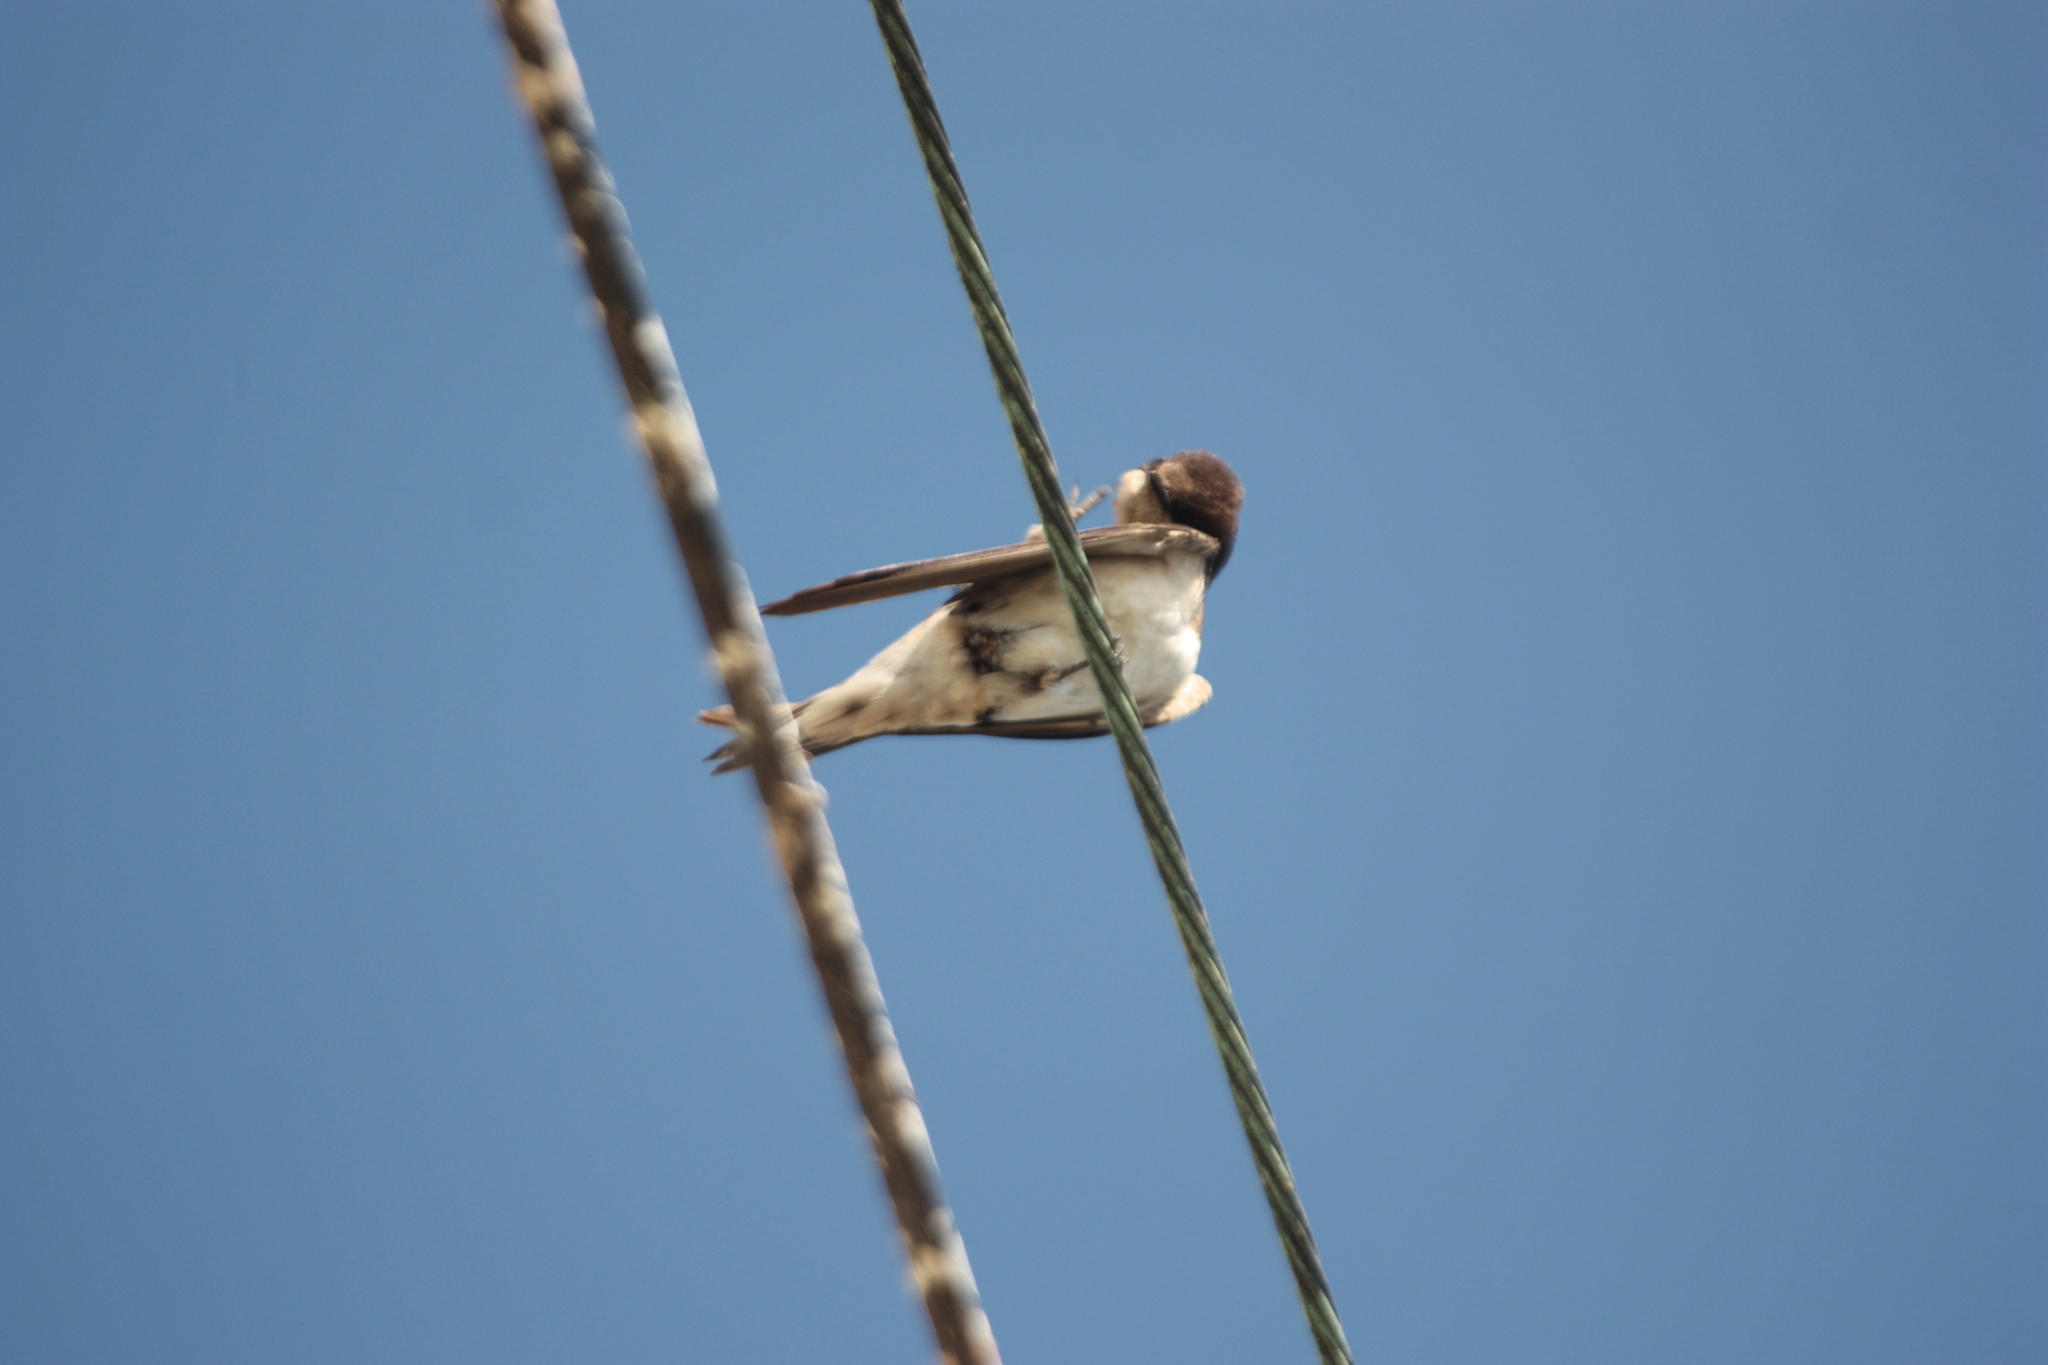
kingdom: Animalia
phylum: Chordata
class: Aves
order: Passeriformes
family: Hirundinidae
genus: Hirundo
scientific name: Hirundo rustica
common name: Barn swallow
